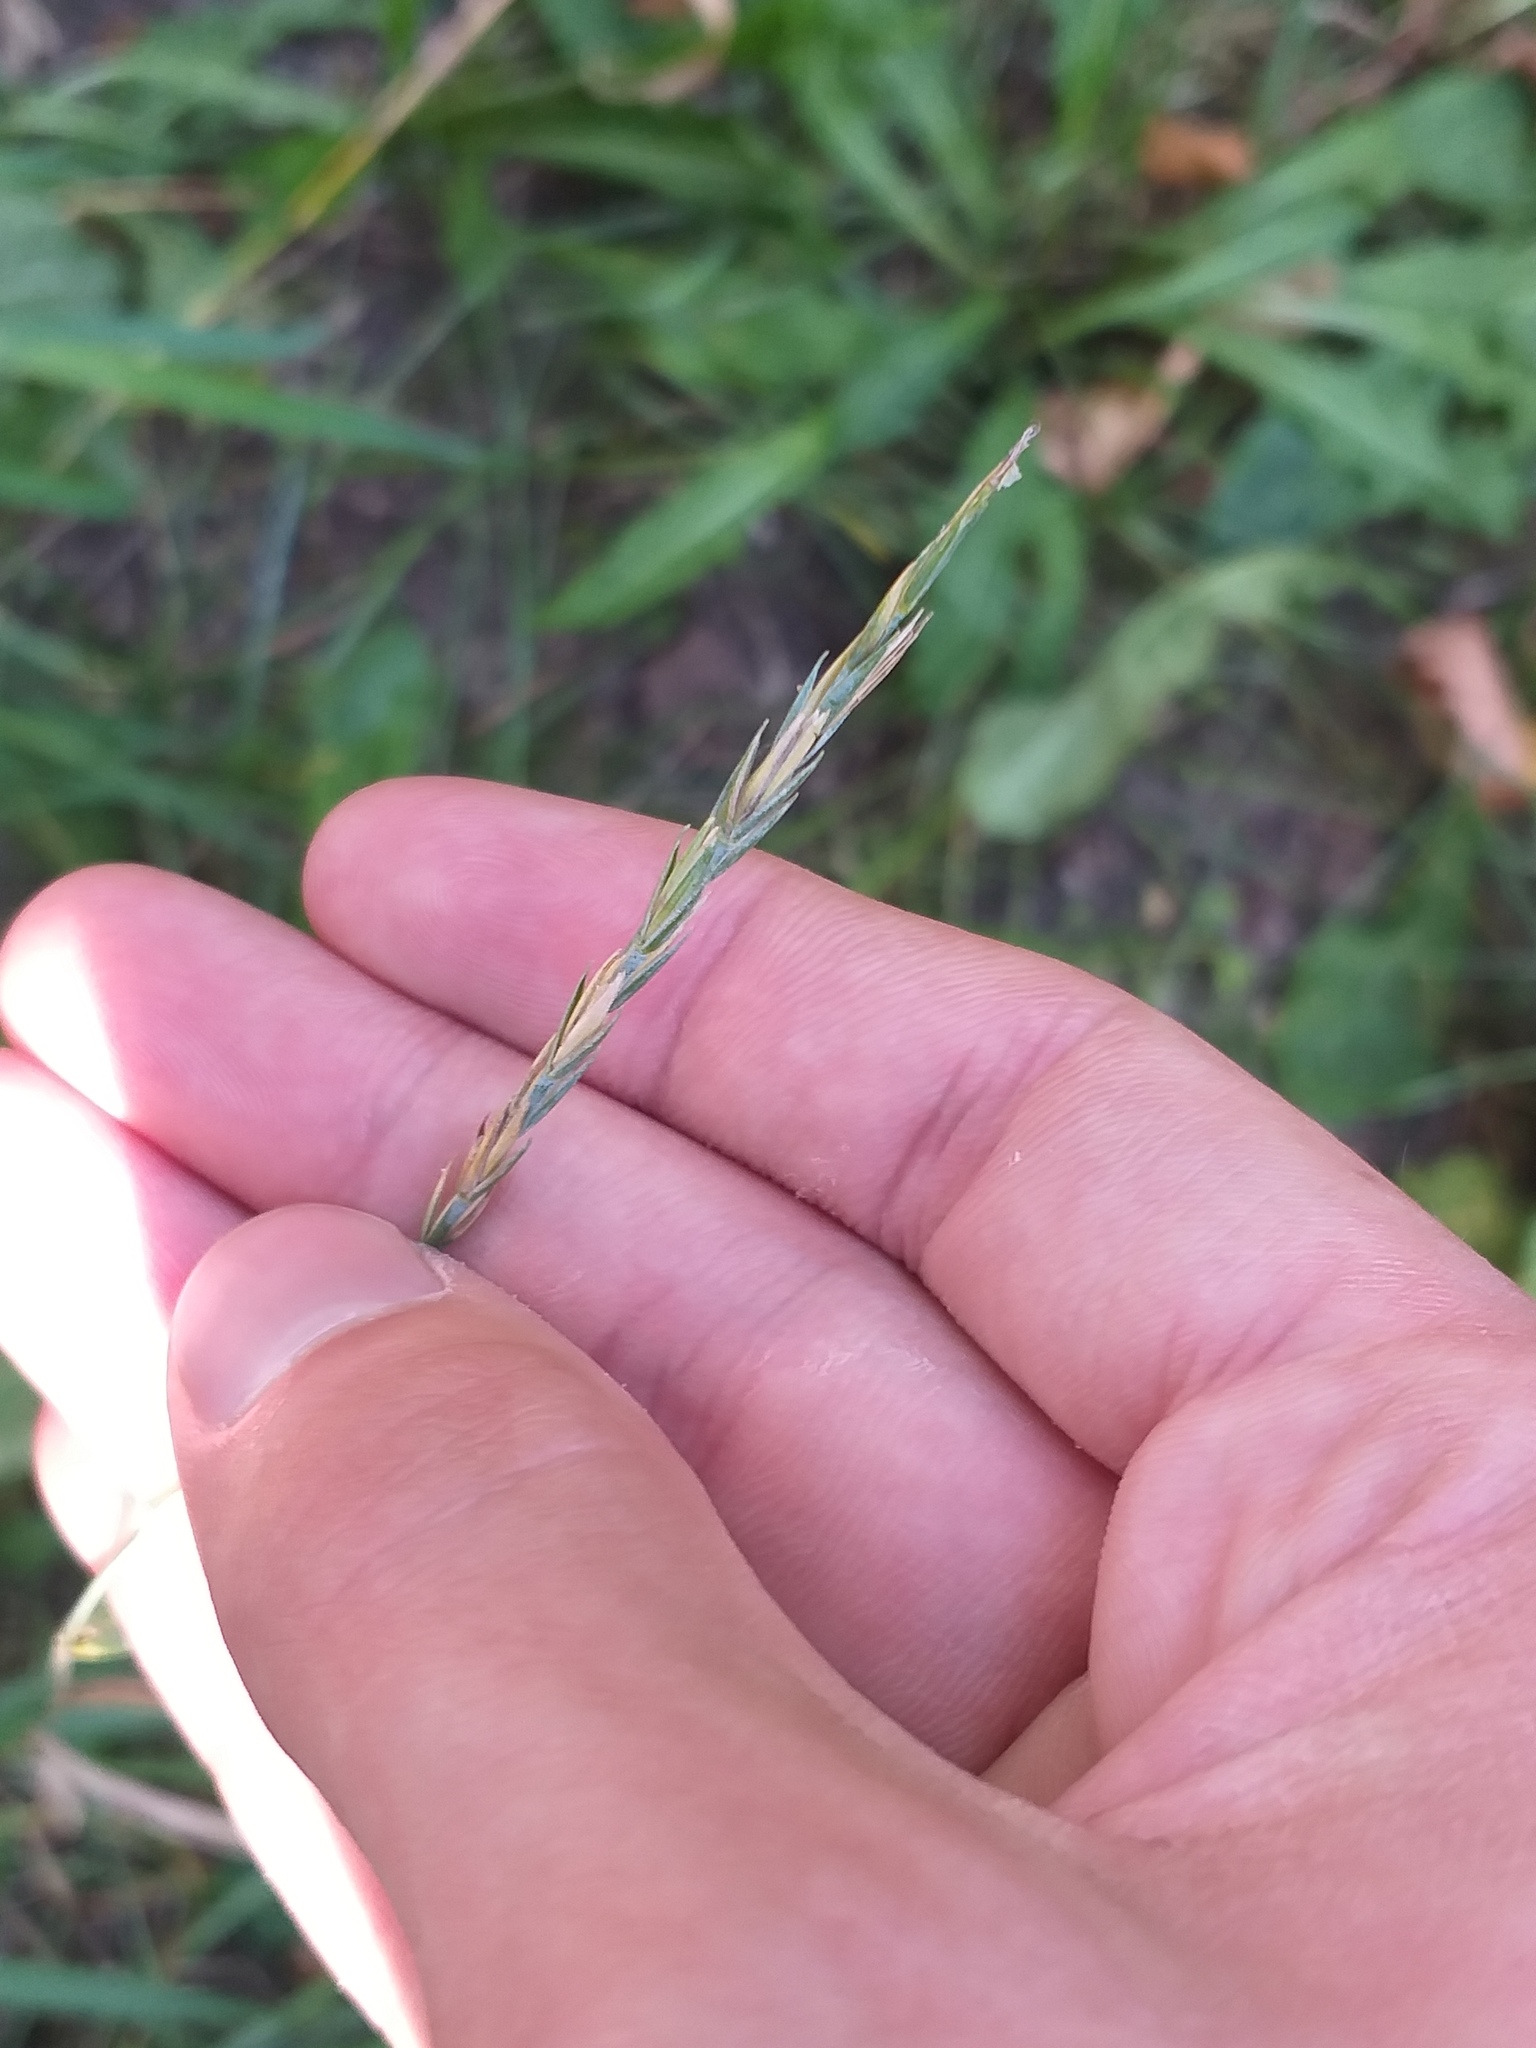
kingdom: Plantae
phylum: Tracheophyta
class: Liliopsida
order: Poales
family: Poaceae
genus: Elymus
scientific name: Elymus repens
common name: Quackgrass
